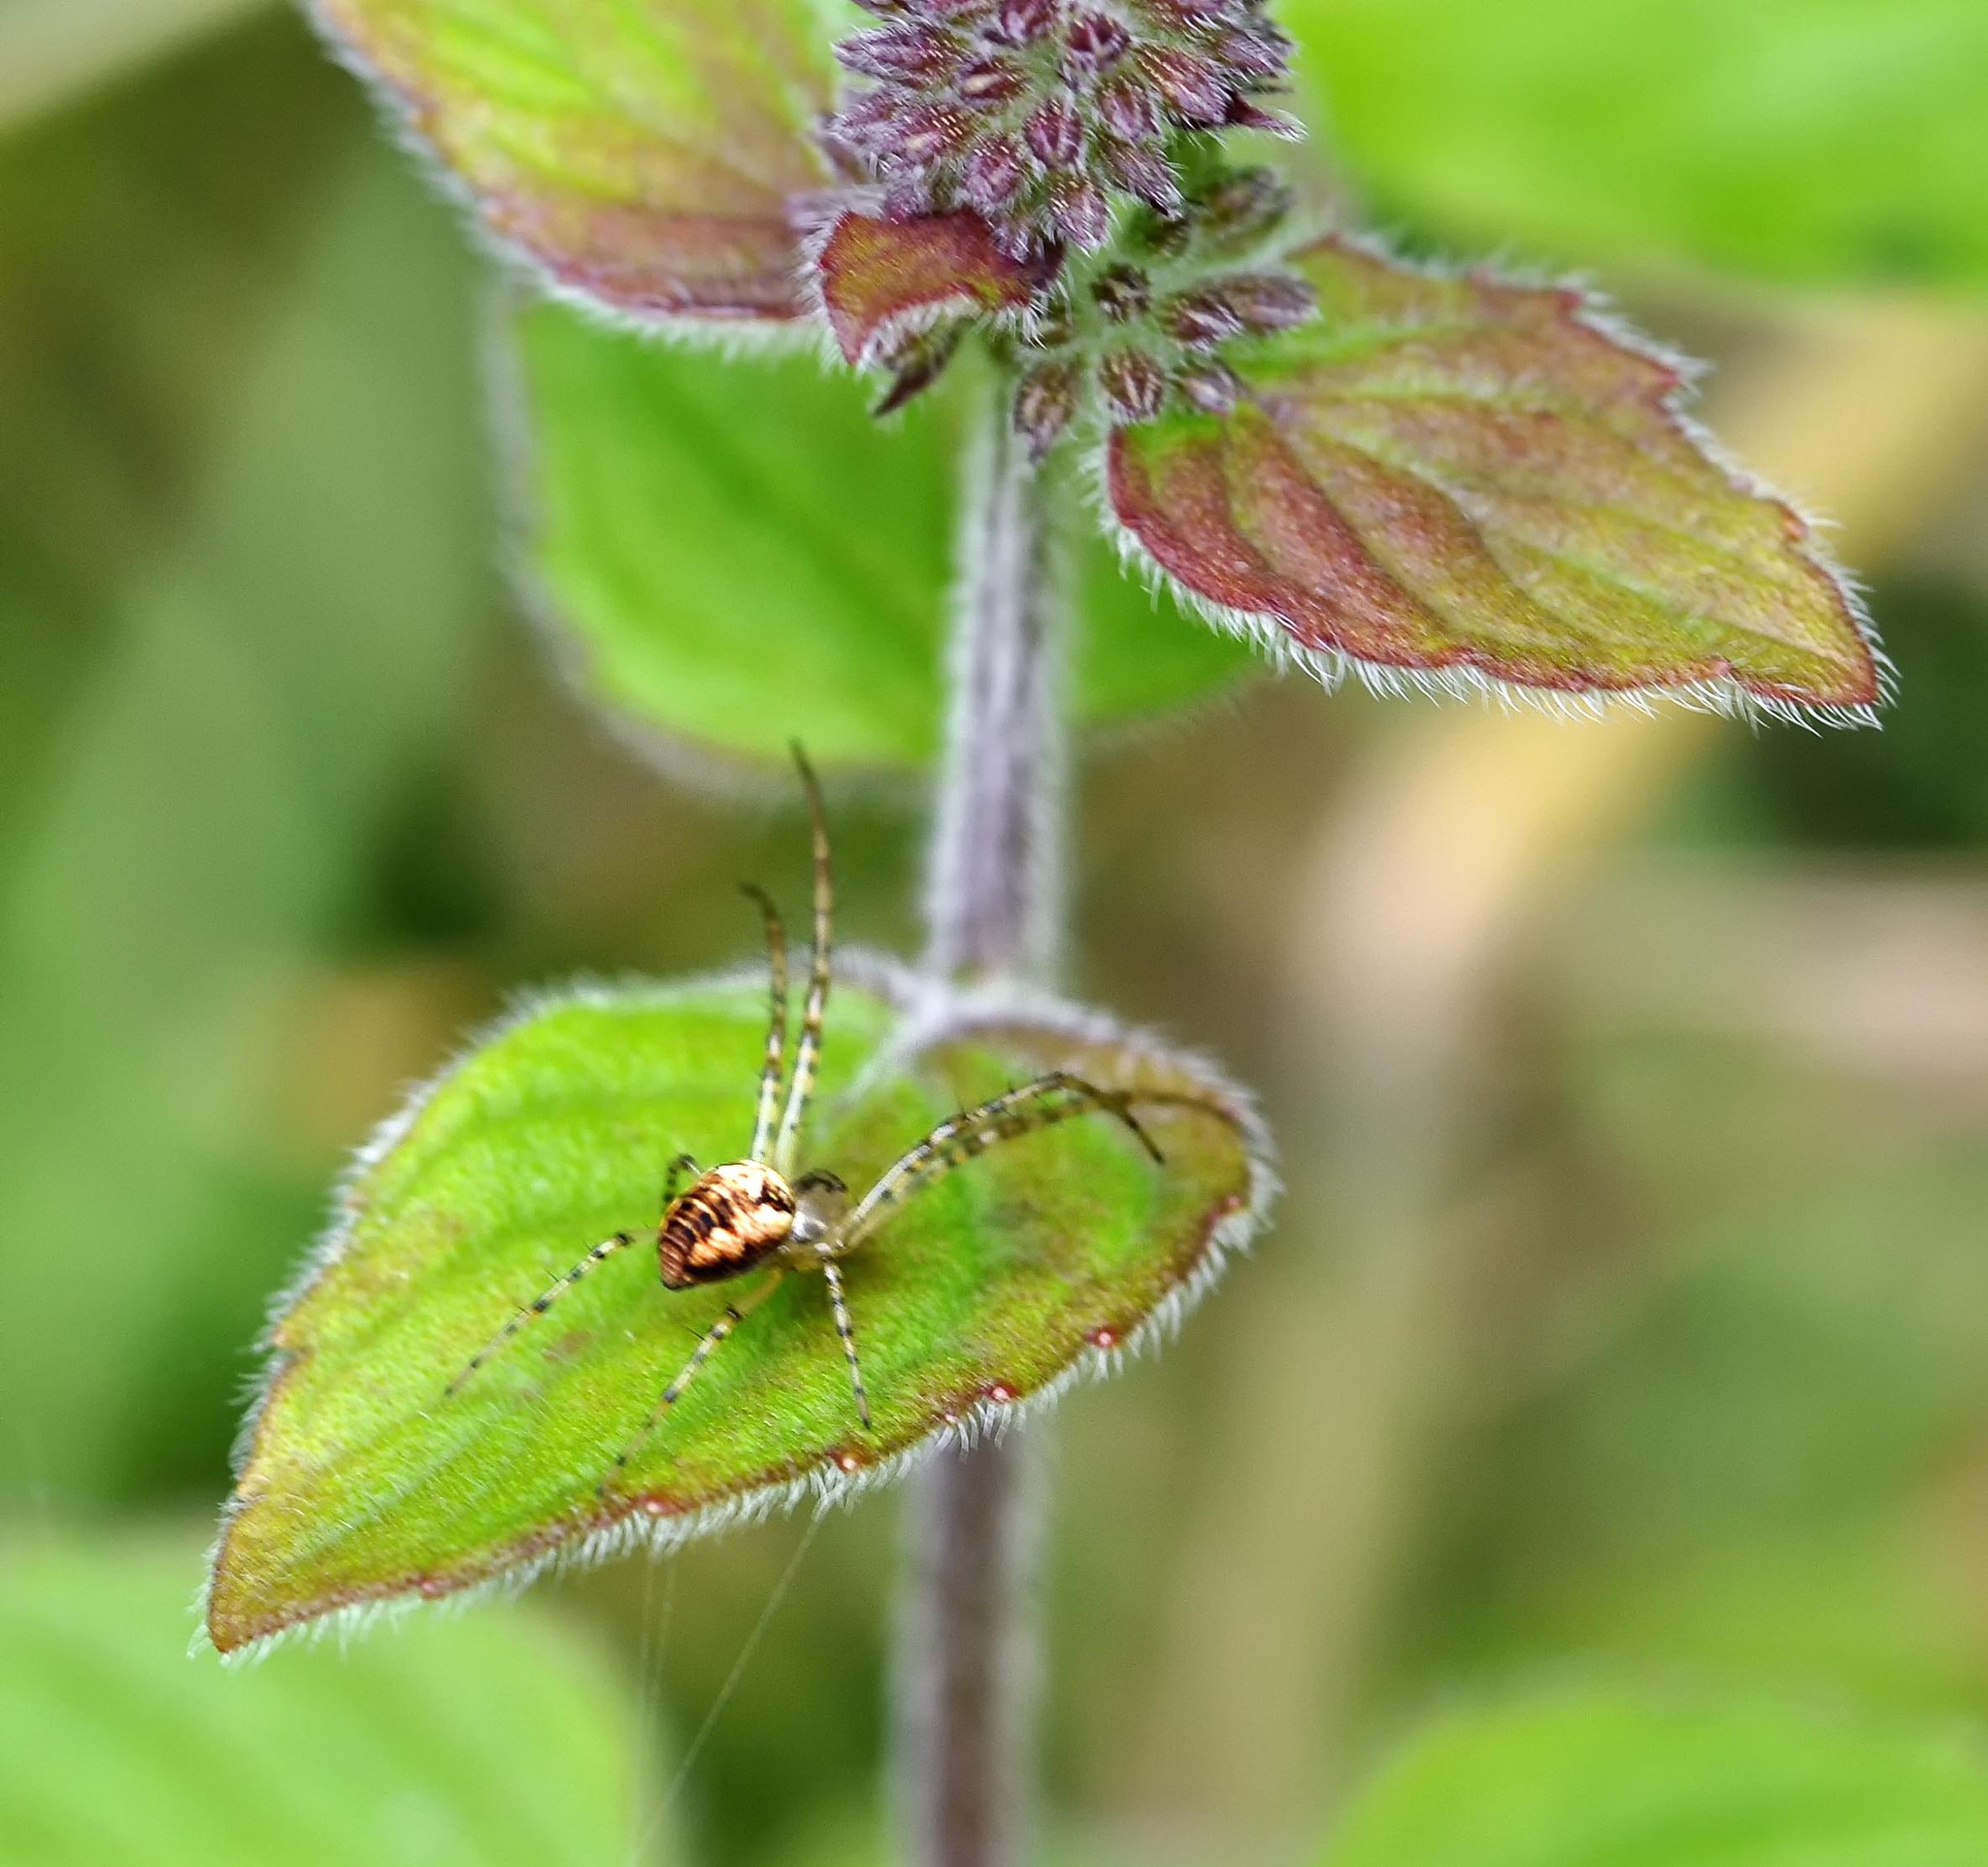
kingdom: Animalia
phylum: Arthropoda
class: Arachnida
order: Araneae
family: Tetragnathidae
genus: Metellina
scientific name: Metellina
